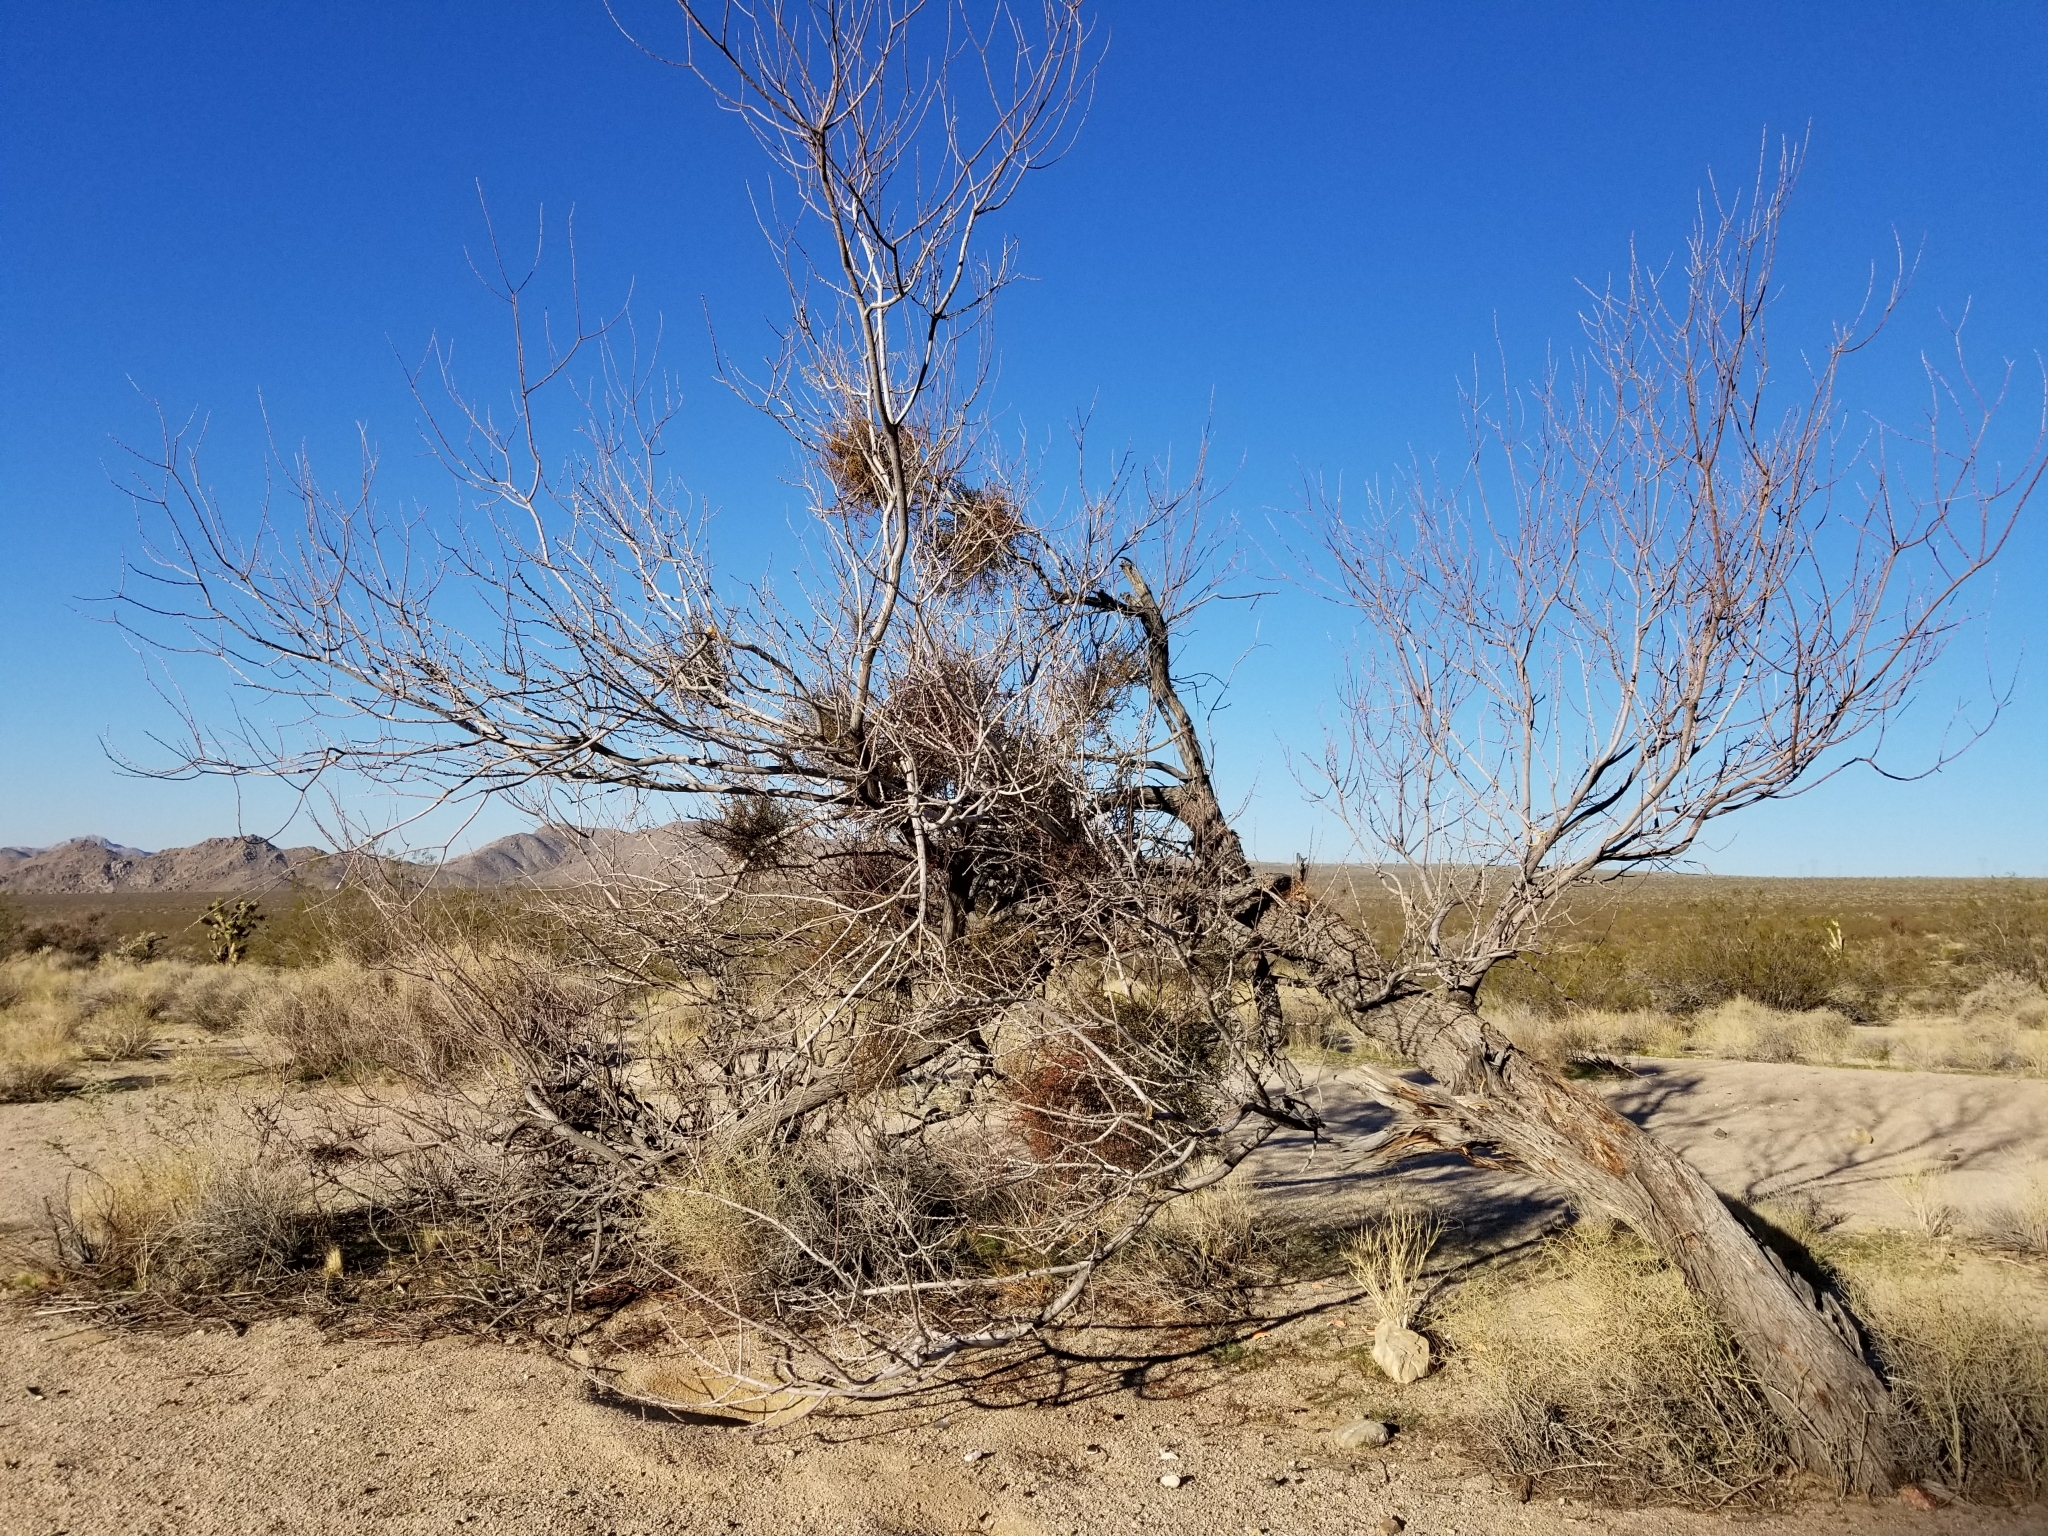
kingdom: Plantae
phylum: Tracheophyta
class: Magnoliopsida
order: Fabales
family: Fabaceae
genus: Senegalia
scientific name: Senegalia greggii
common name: Texas-mimosa
